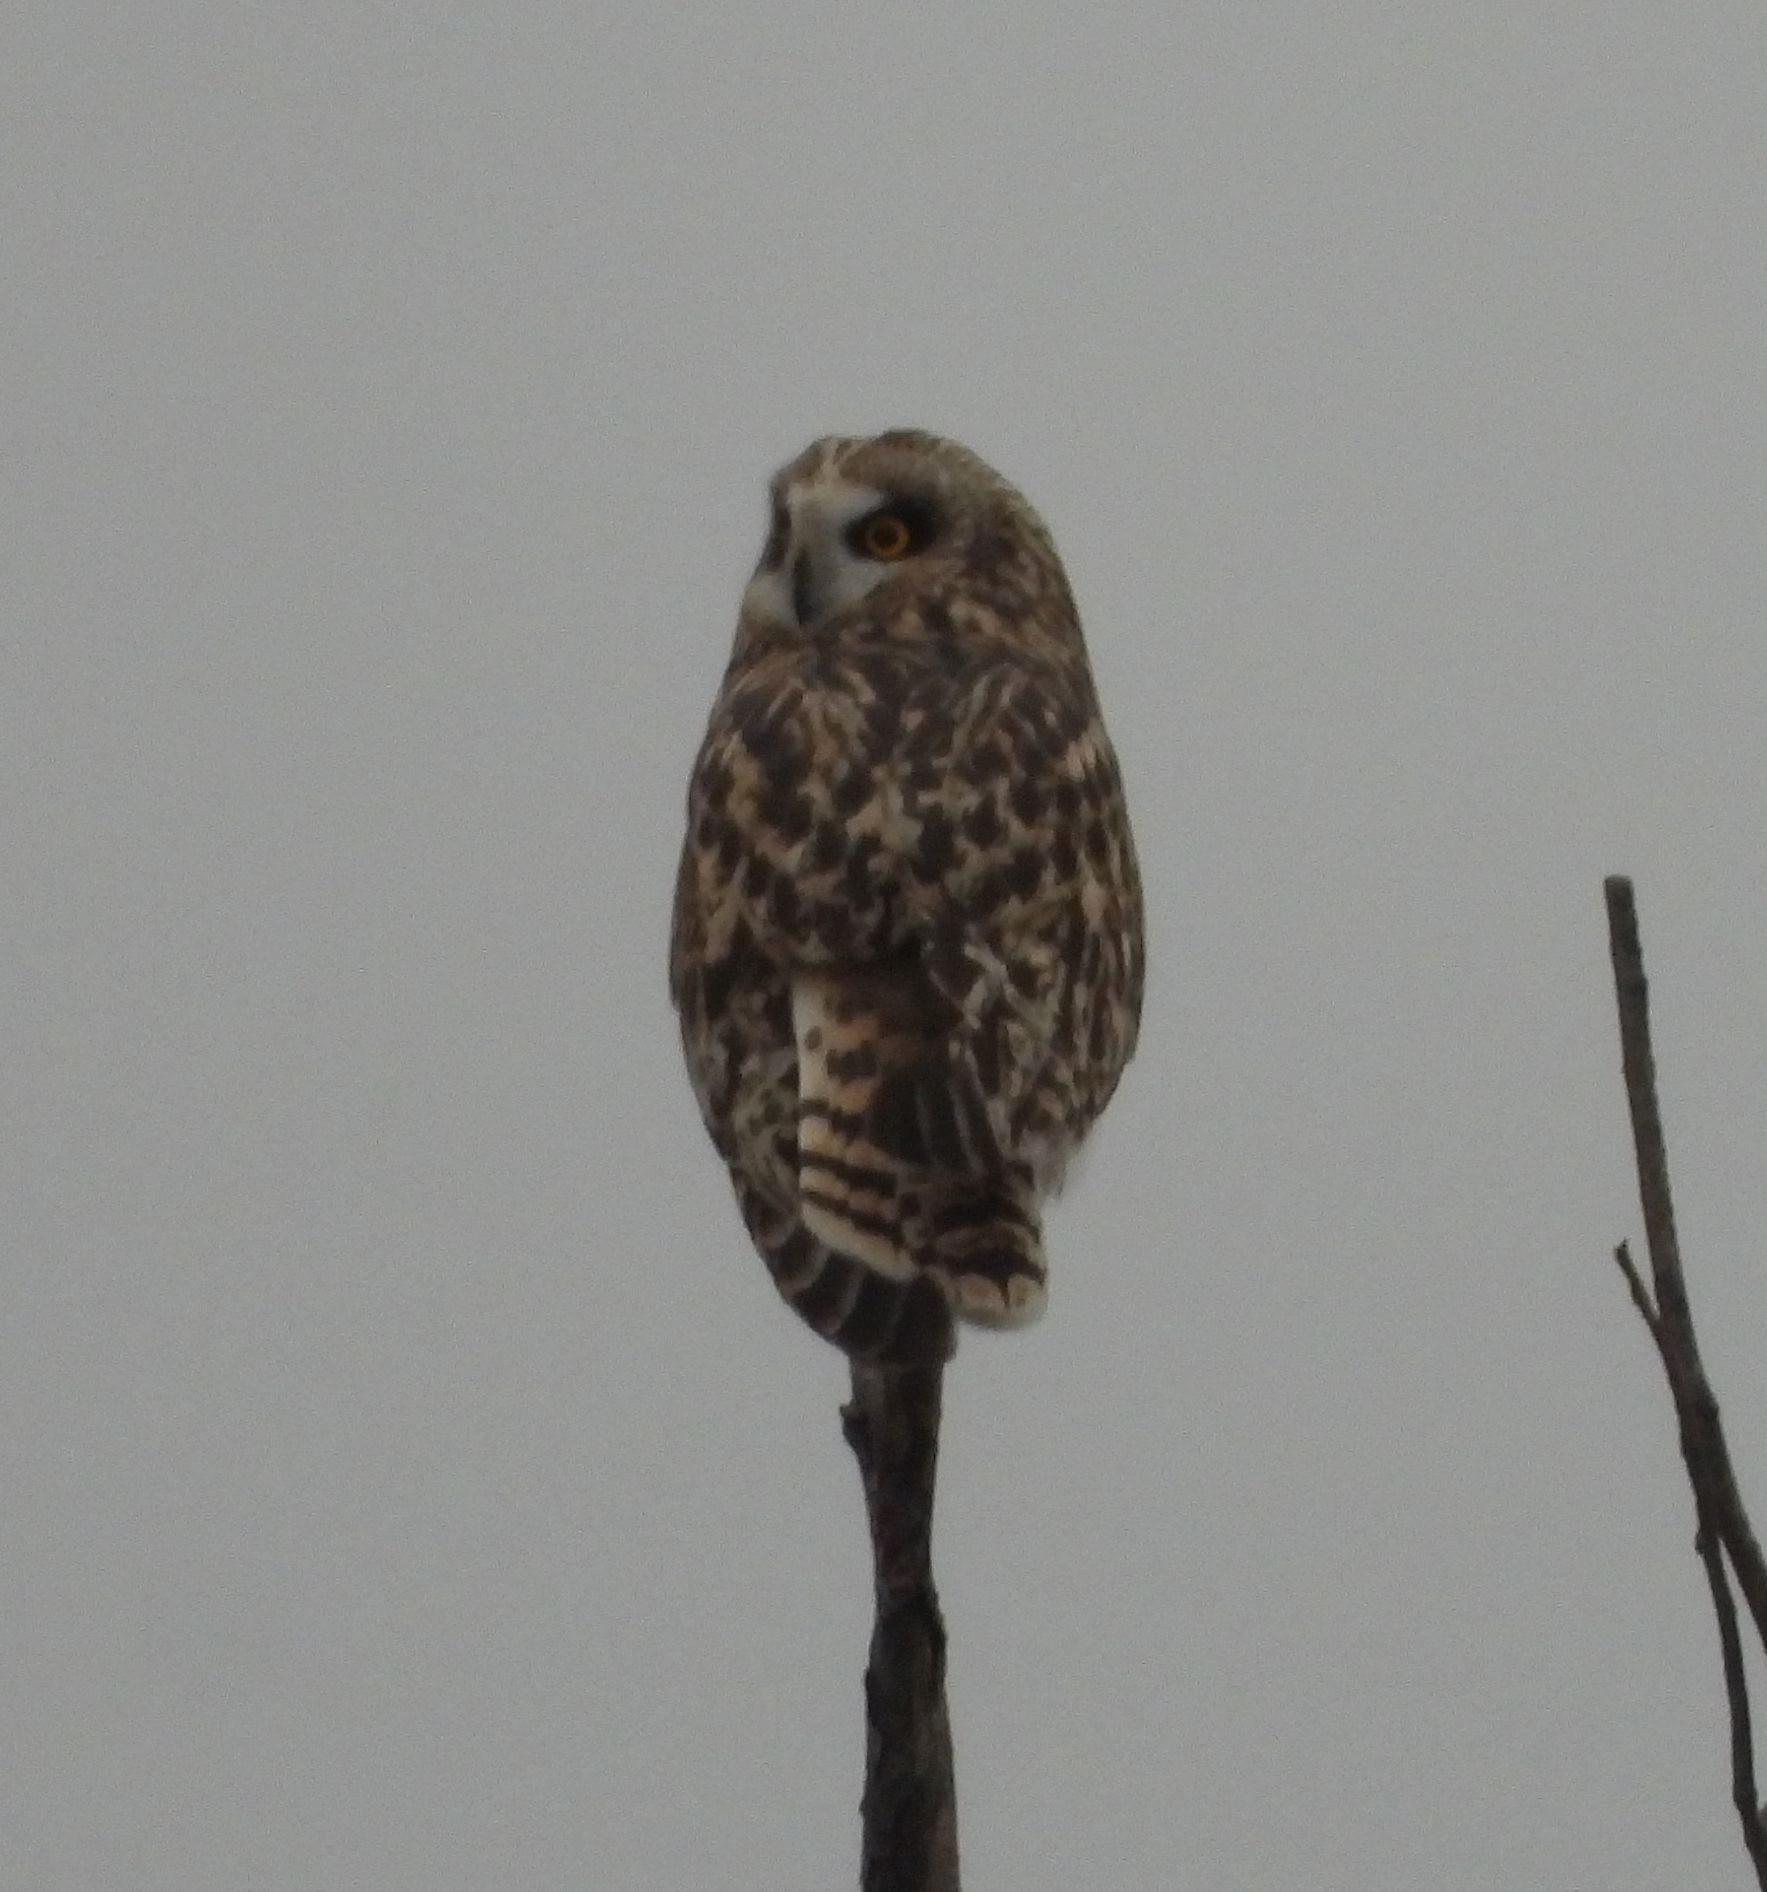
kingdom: Animalia
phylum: Chordata
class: Aves
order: Strigiformes
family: Strigidae
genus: Asio
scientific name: Asio flammeus
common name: Short-eared owl
